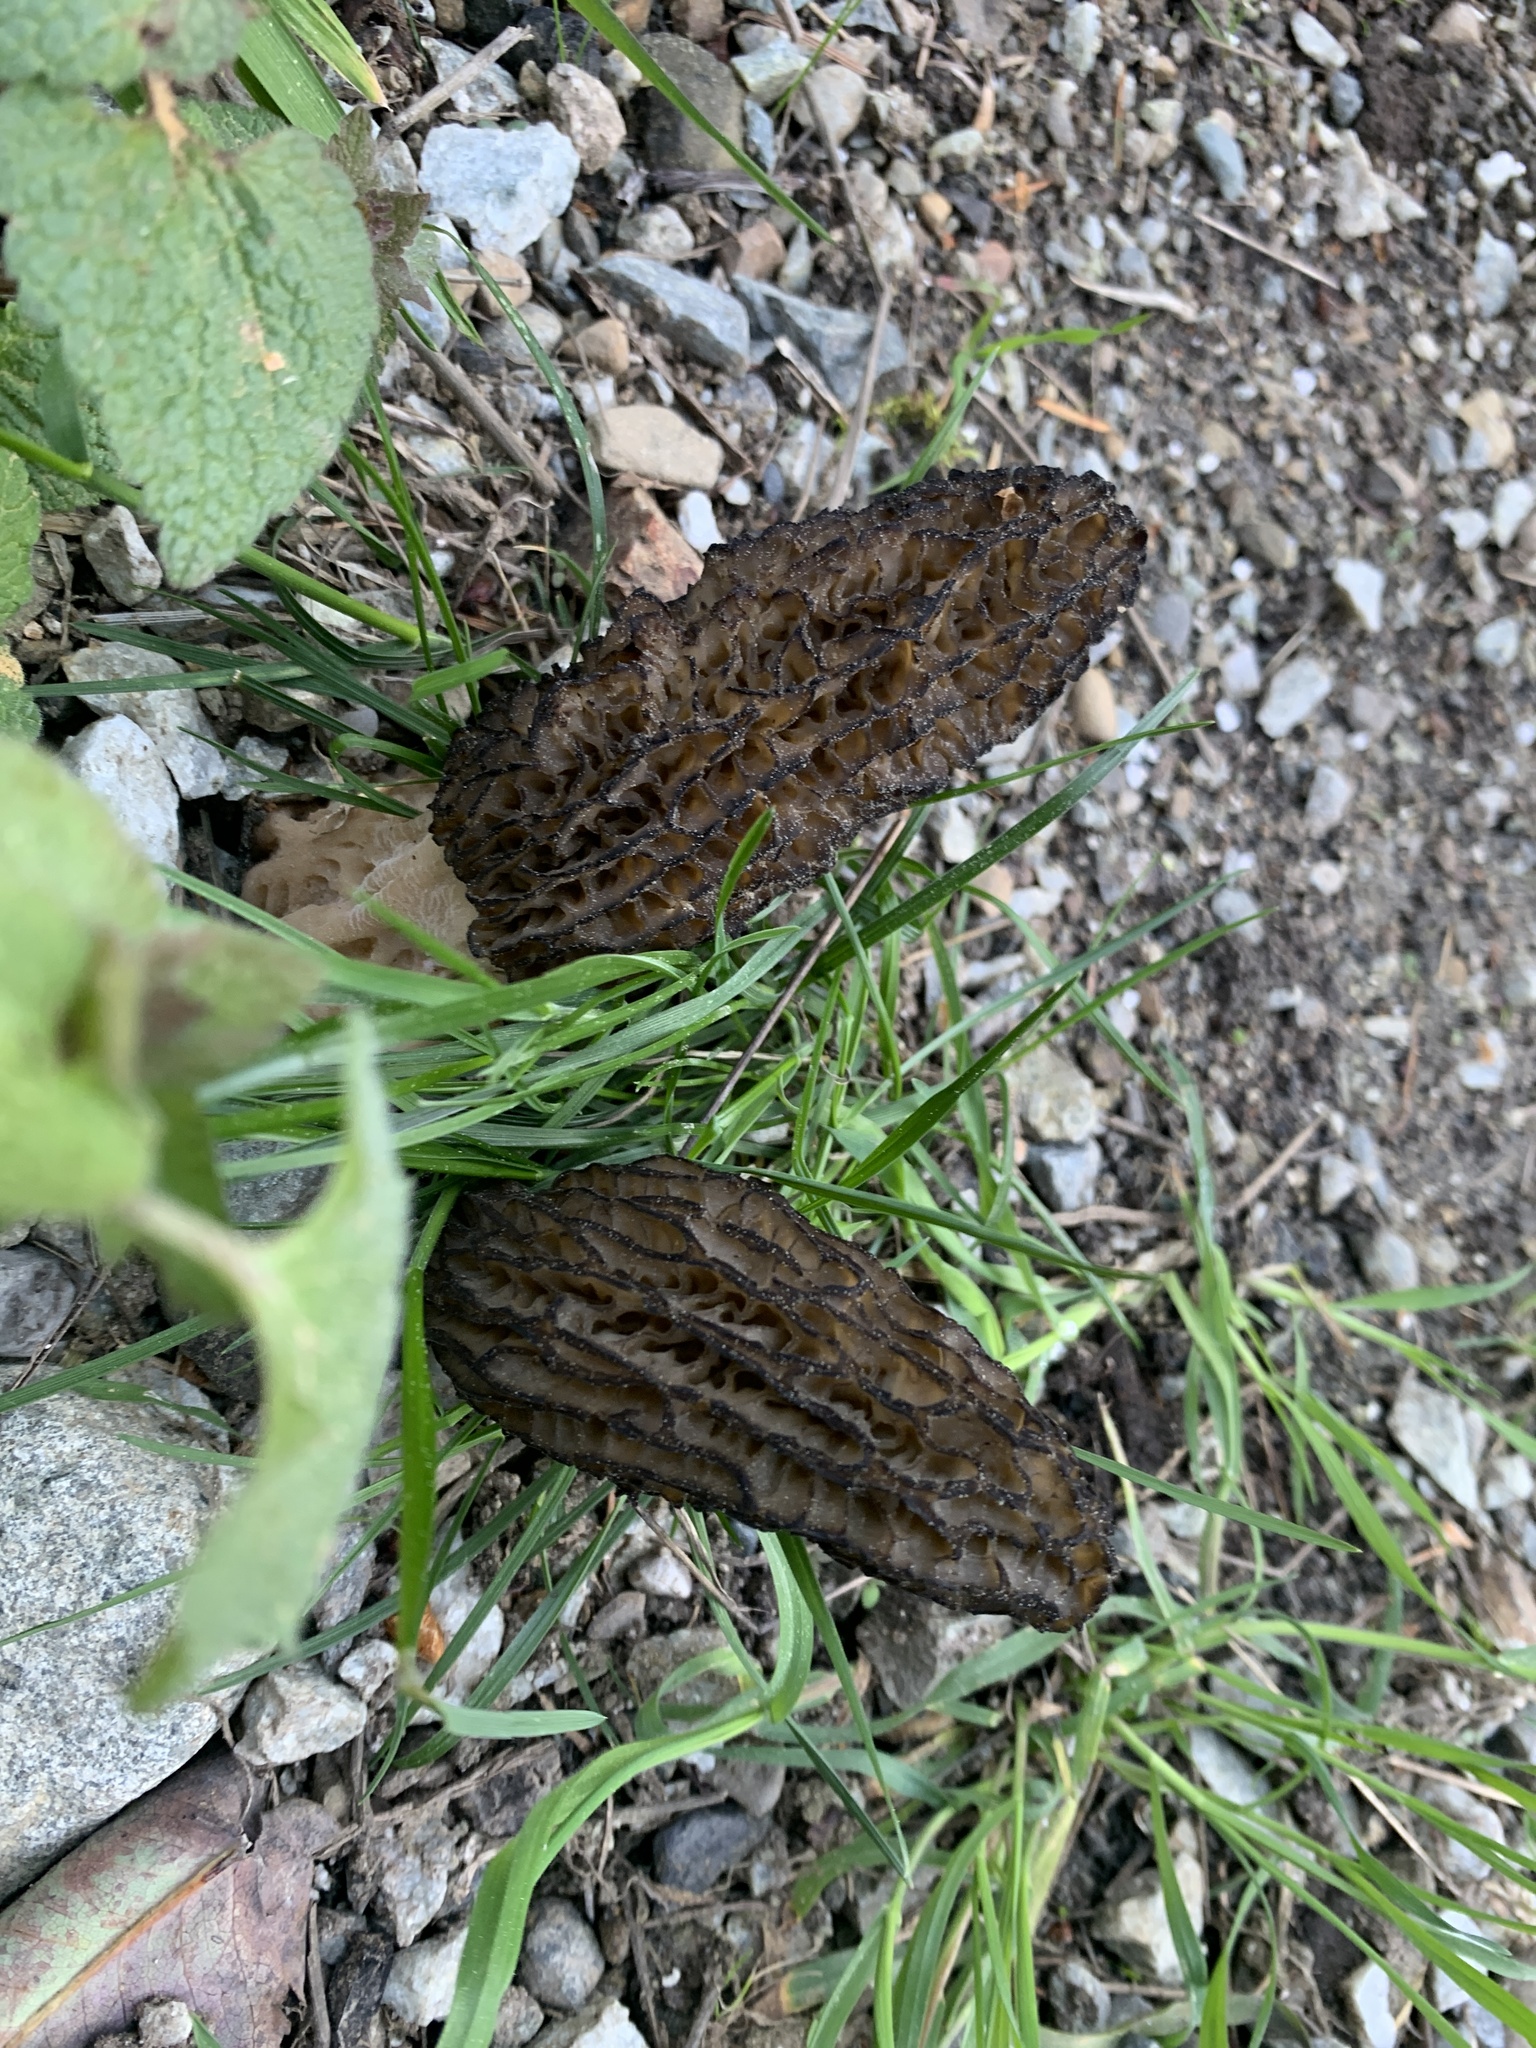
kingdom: Fungi
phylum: Ascomycota
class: Pezizomycetes
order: Pezizales
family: Morchellaceae
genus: Morchella
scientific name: Morchella importuna
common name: Landscaping black morel
